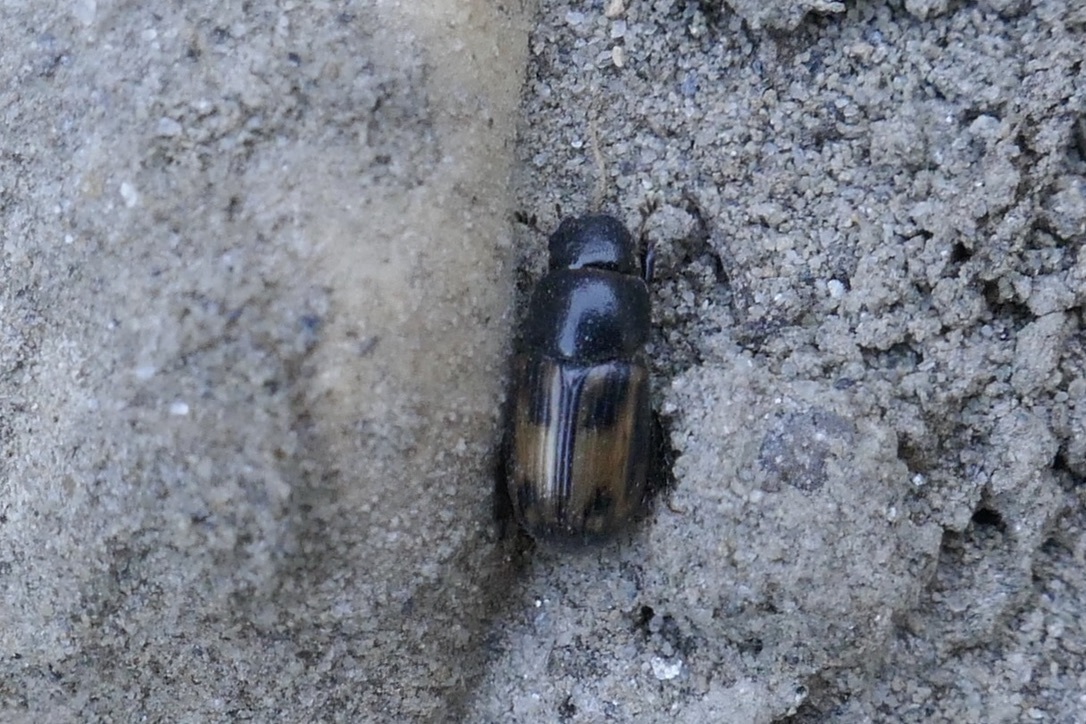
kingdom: Animalia
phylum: Arthropoda
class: Insecta
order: Coleoptera
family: Scarabaeidae
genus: Chilothorax
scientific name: Chilothorax distinctus
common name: Maculated dung beetle
